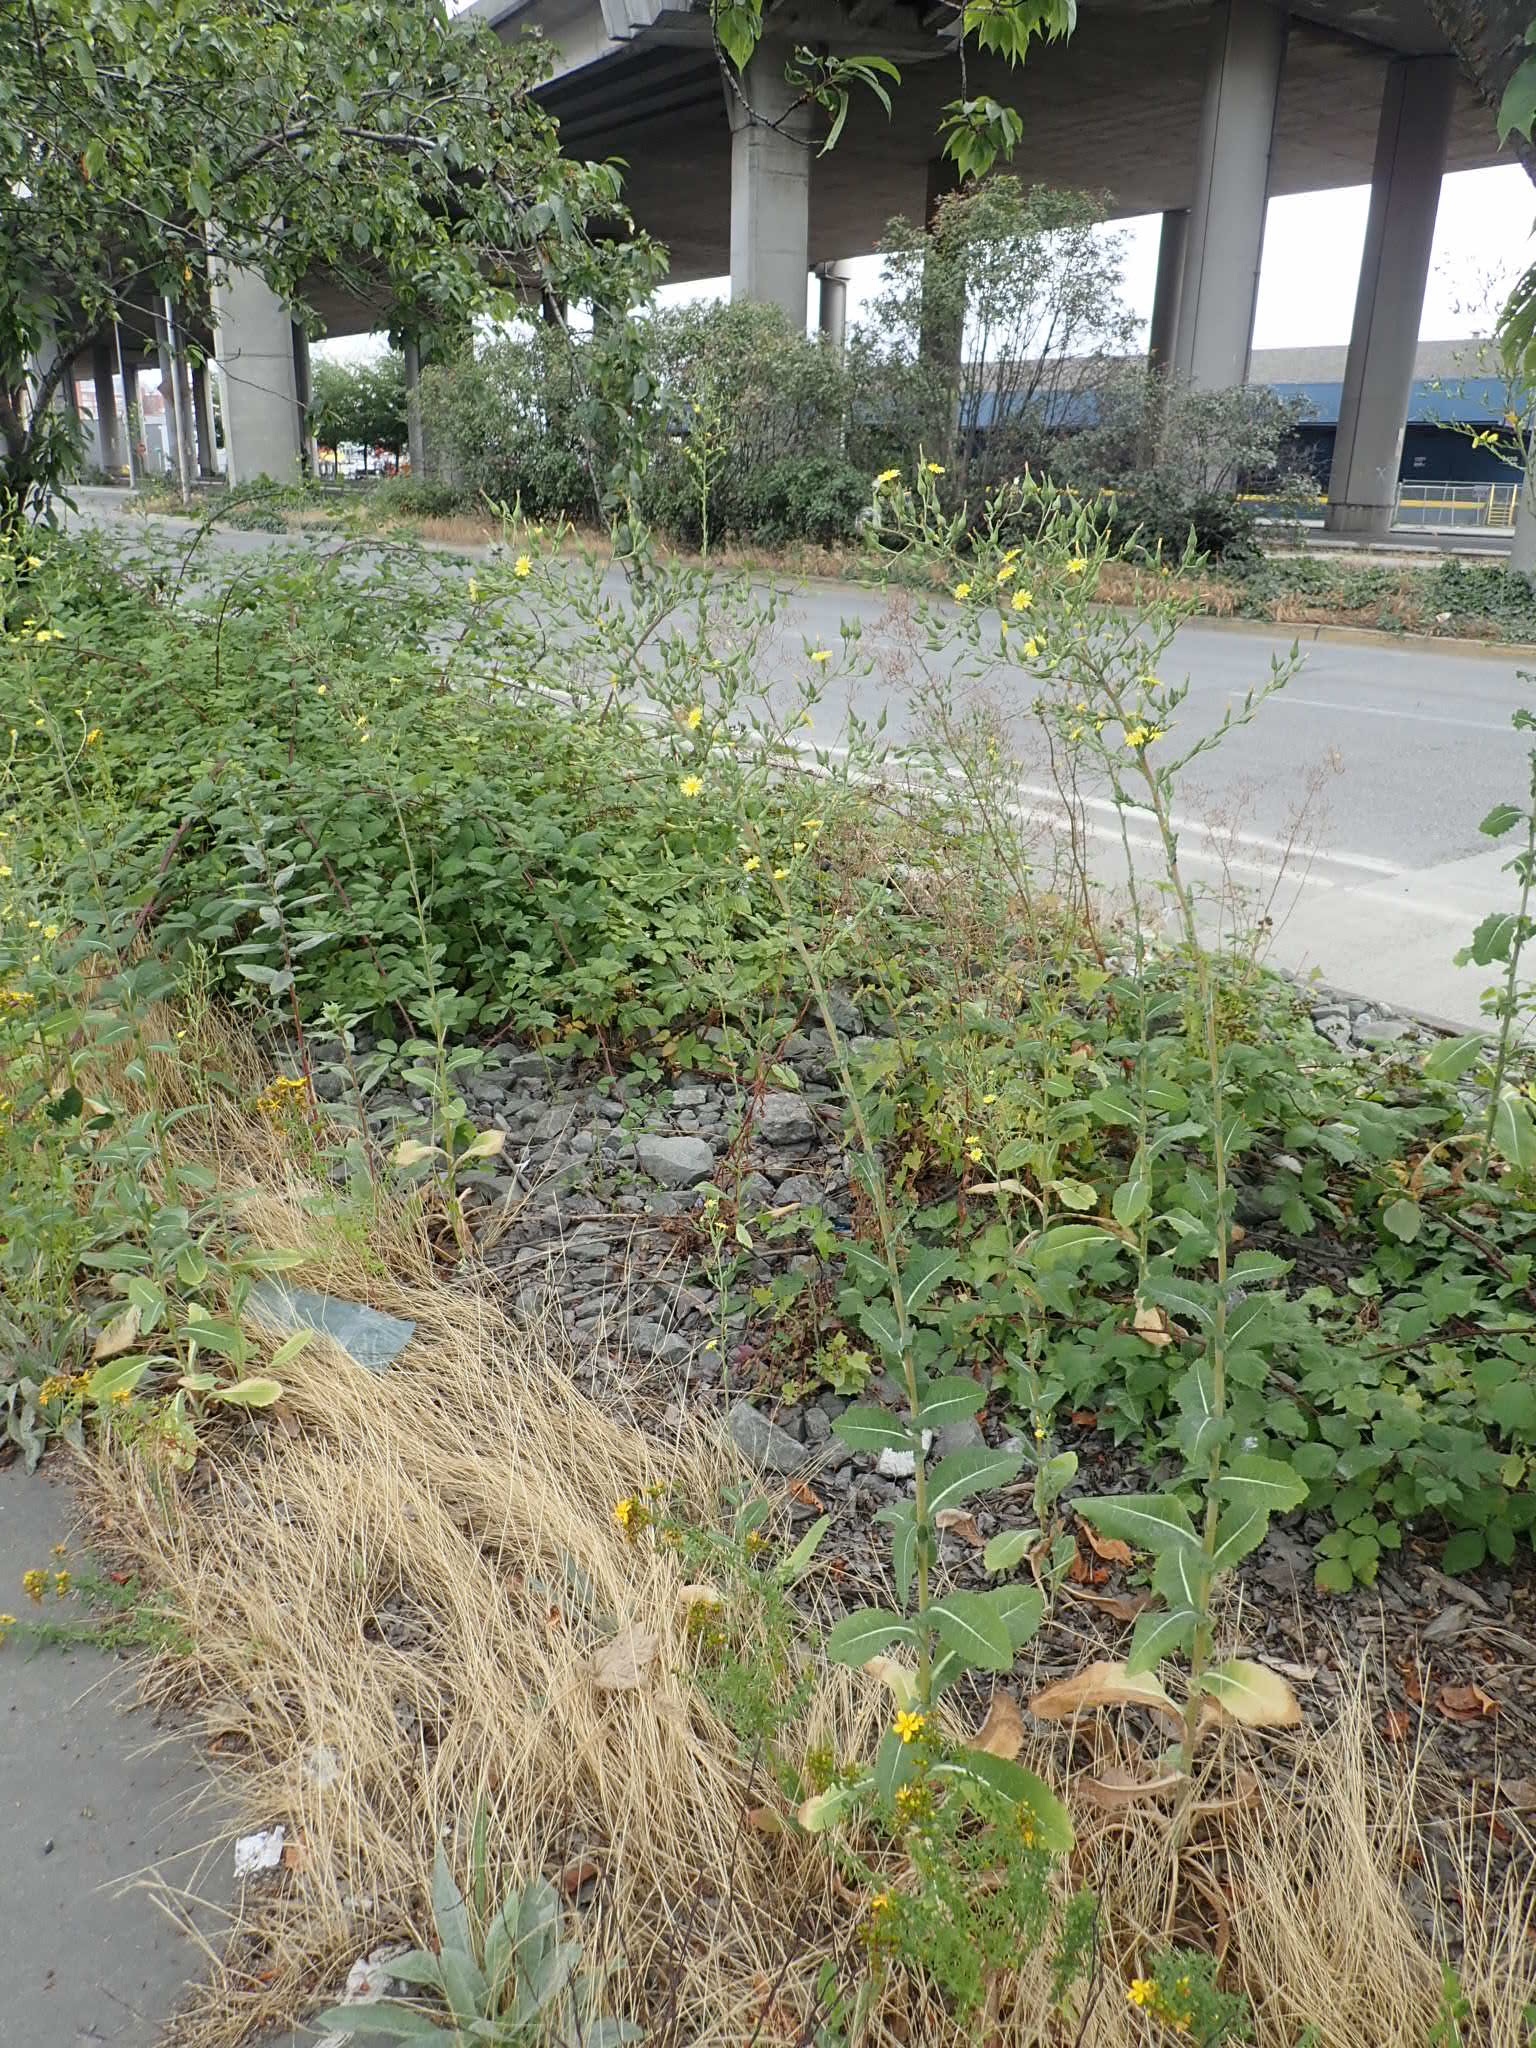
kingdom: Plantae
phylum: Tracheophyta
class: Magnoliopsida
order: Asterales
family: Asteraceae
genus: Lactuca
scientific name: Lactuca serriola
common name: Prickly lettuce
